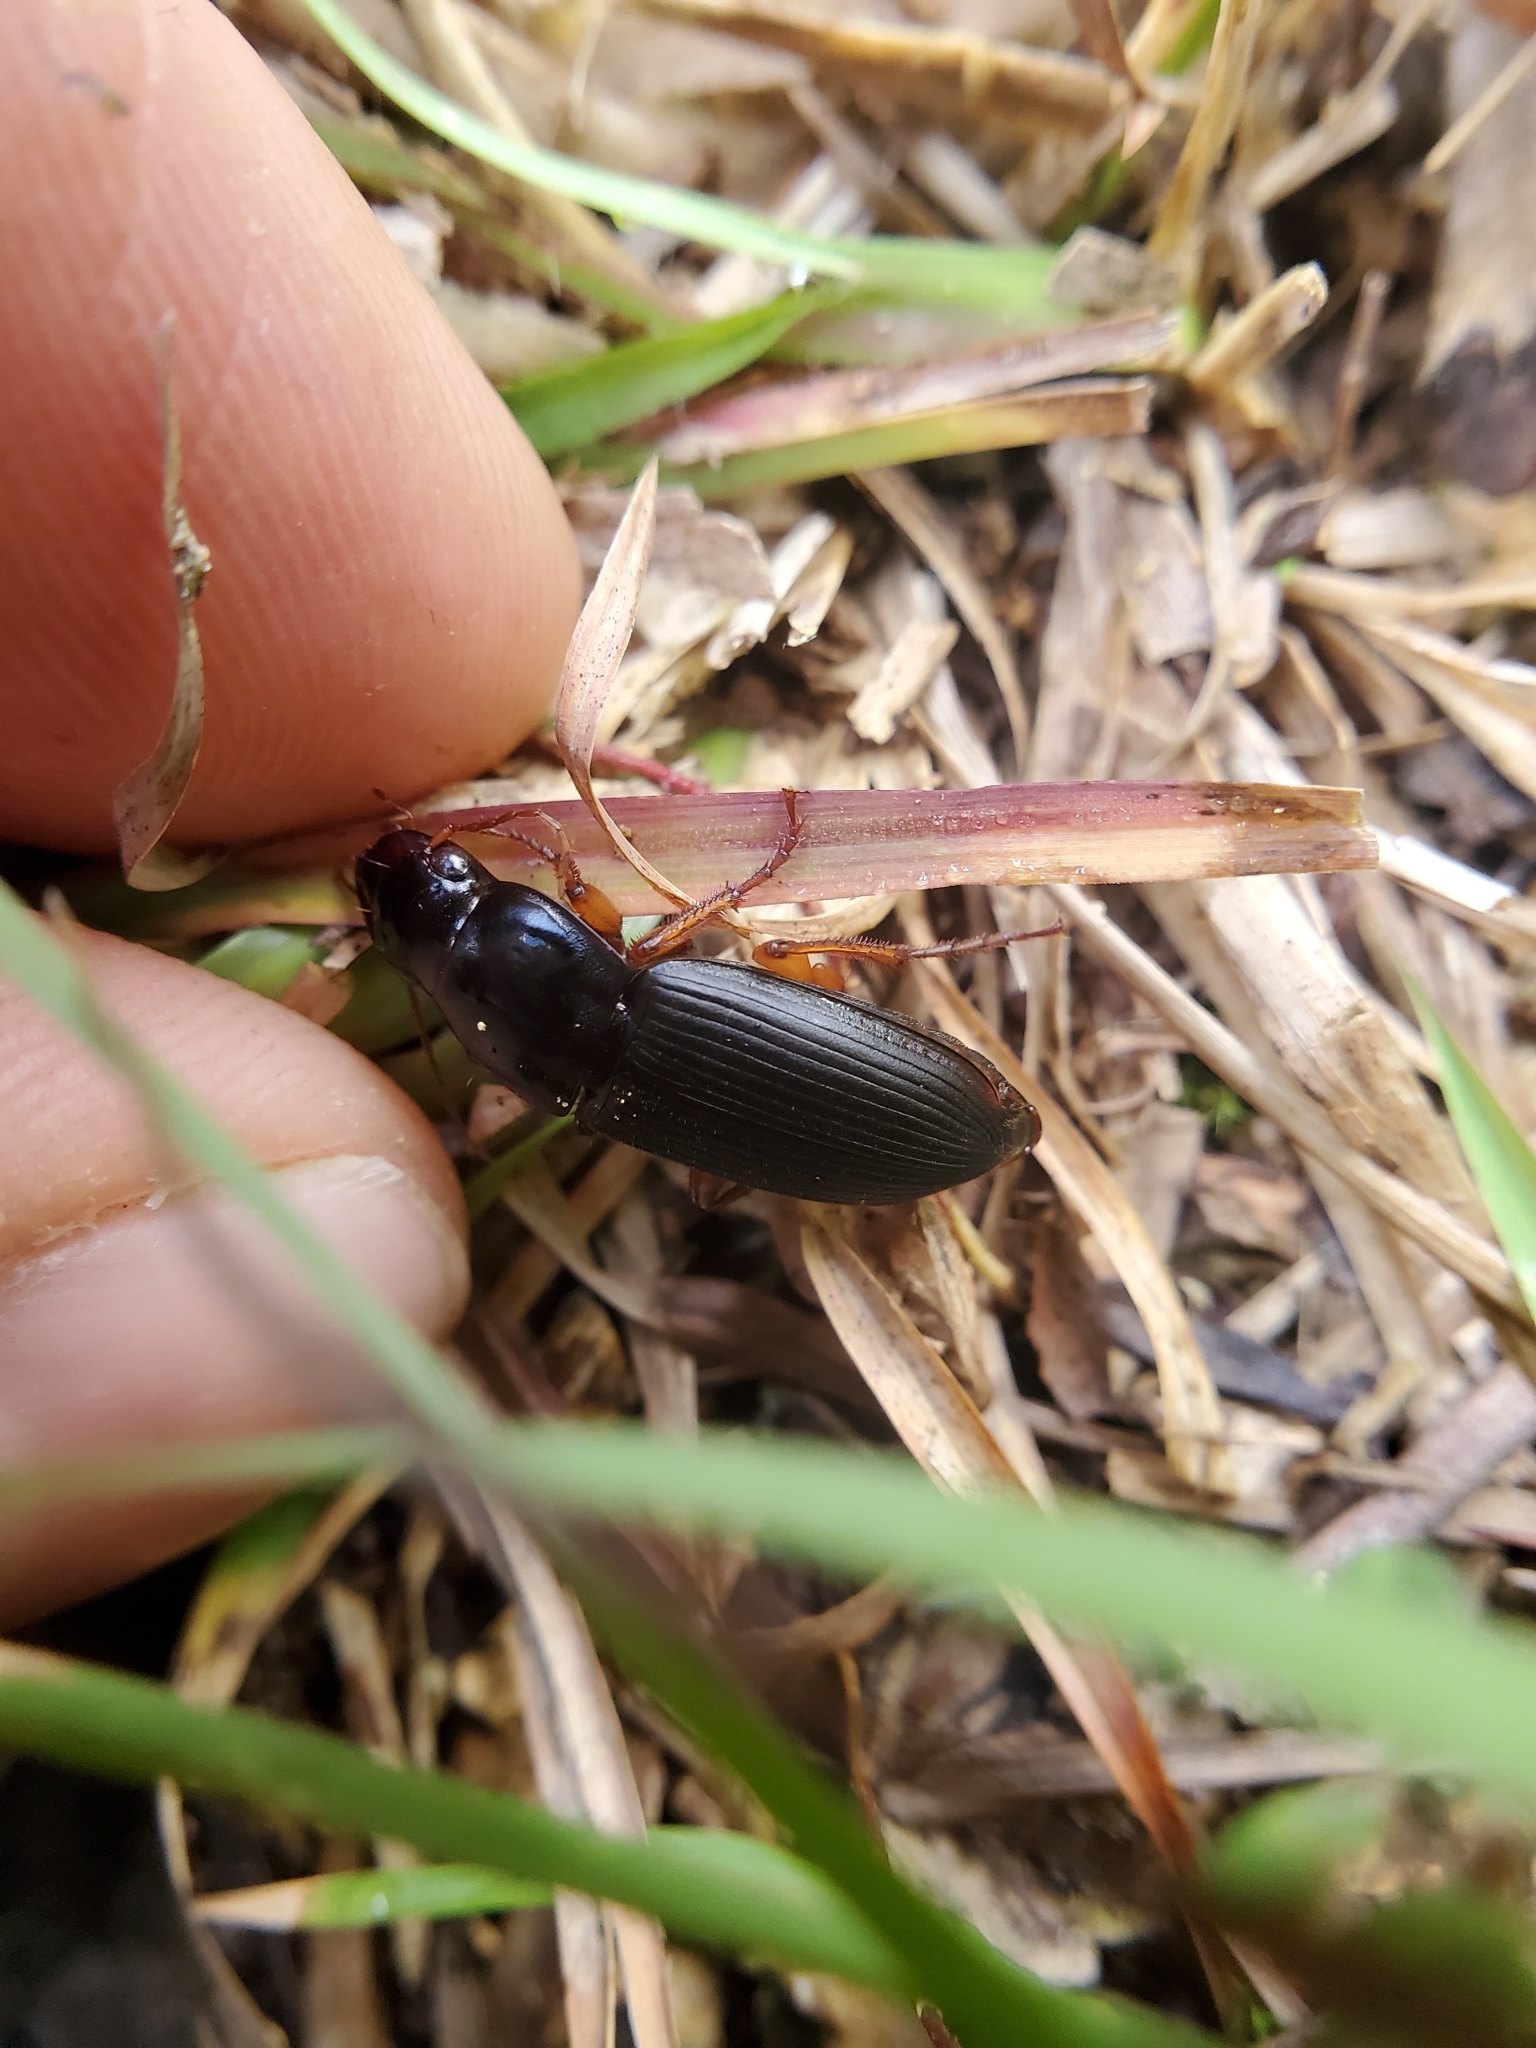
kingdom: Animalia
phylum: Arthropoda
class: Insecta
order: Coleoptera
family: Carabidae
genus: Harpalus
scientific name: Harpalus pensylvanicus
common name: Pennsylvania dingy ground beetle
